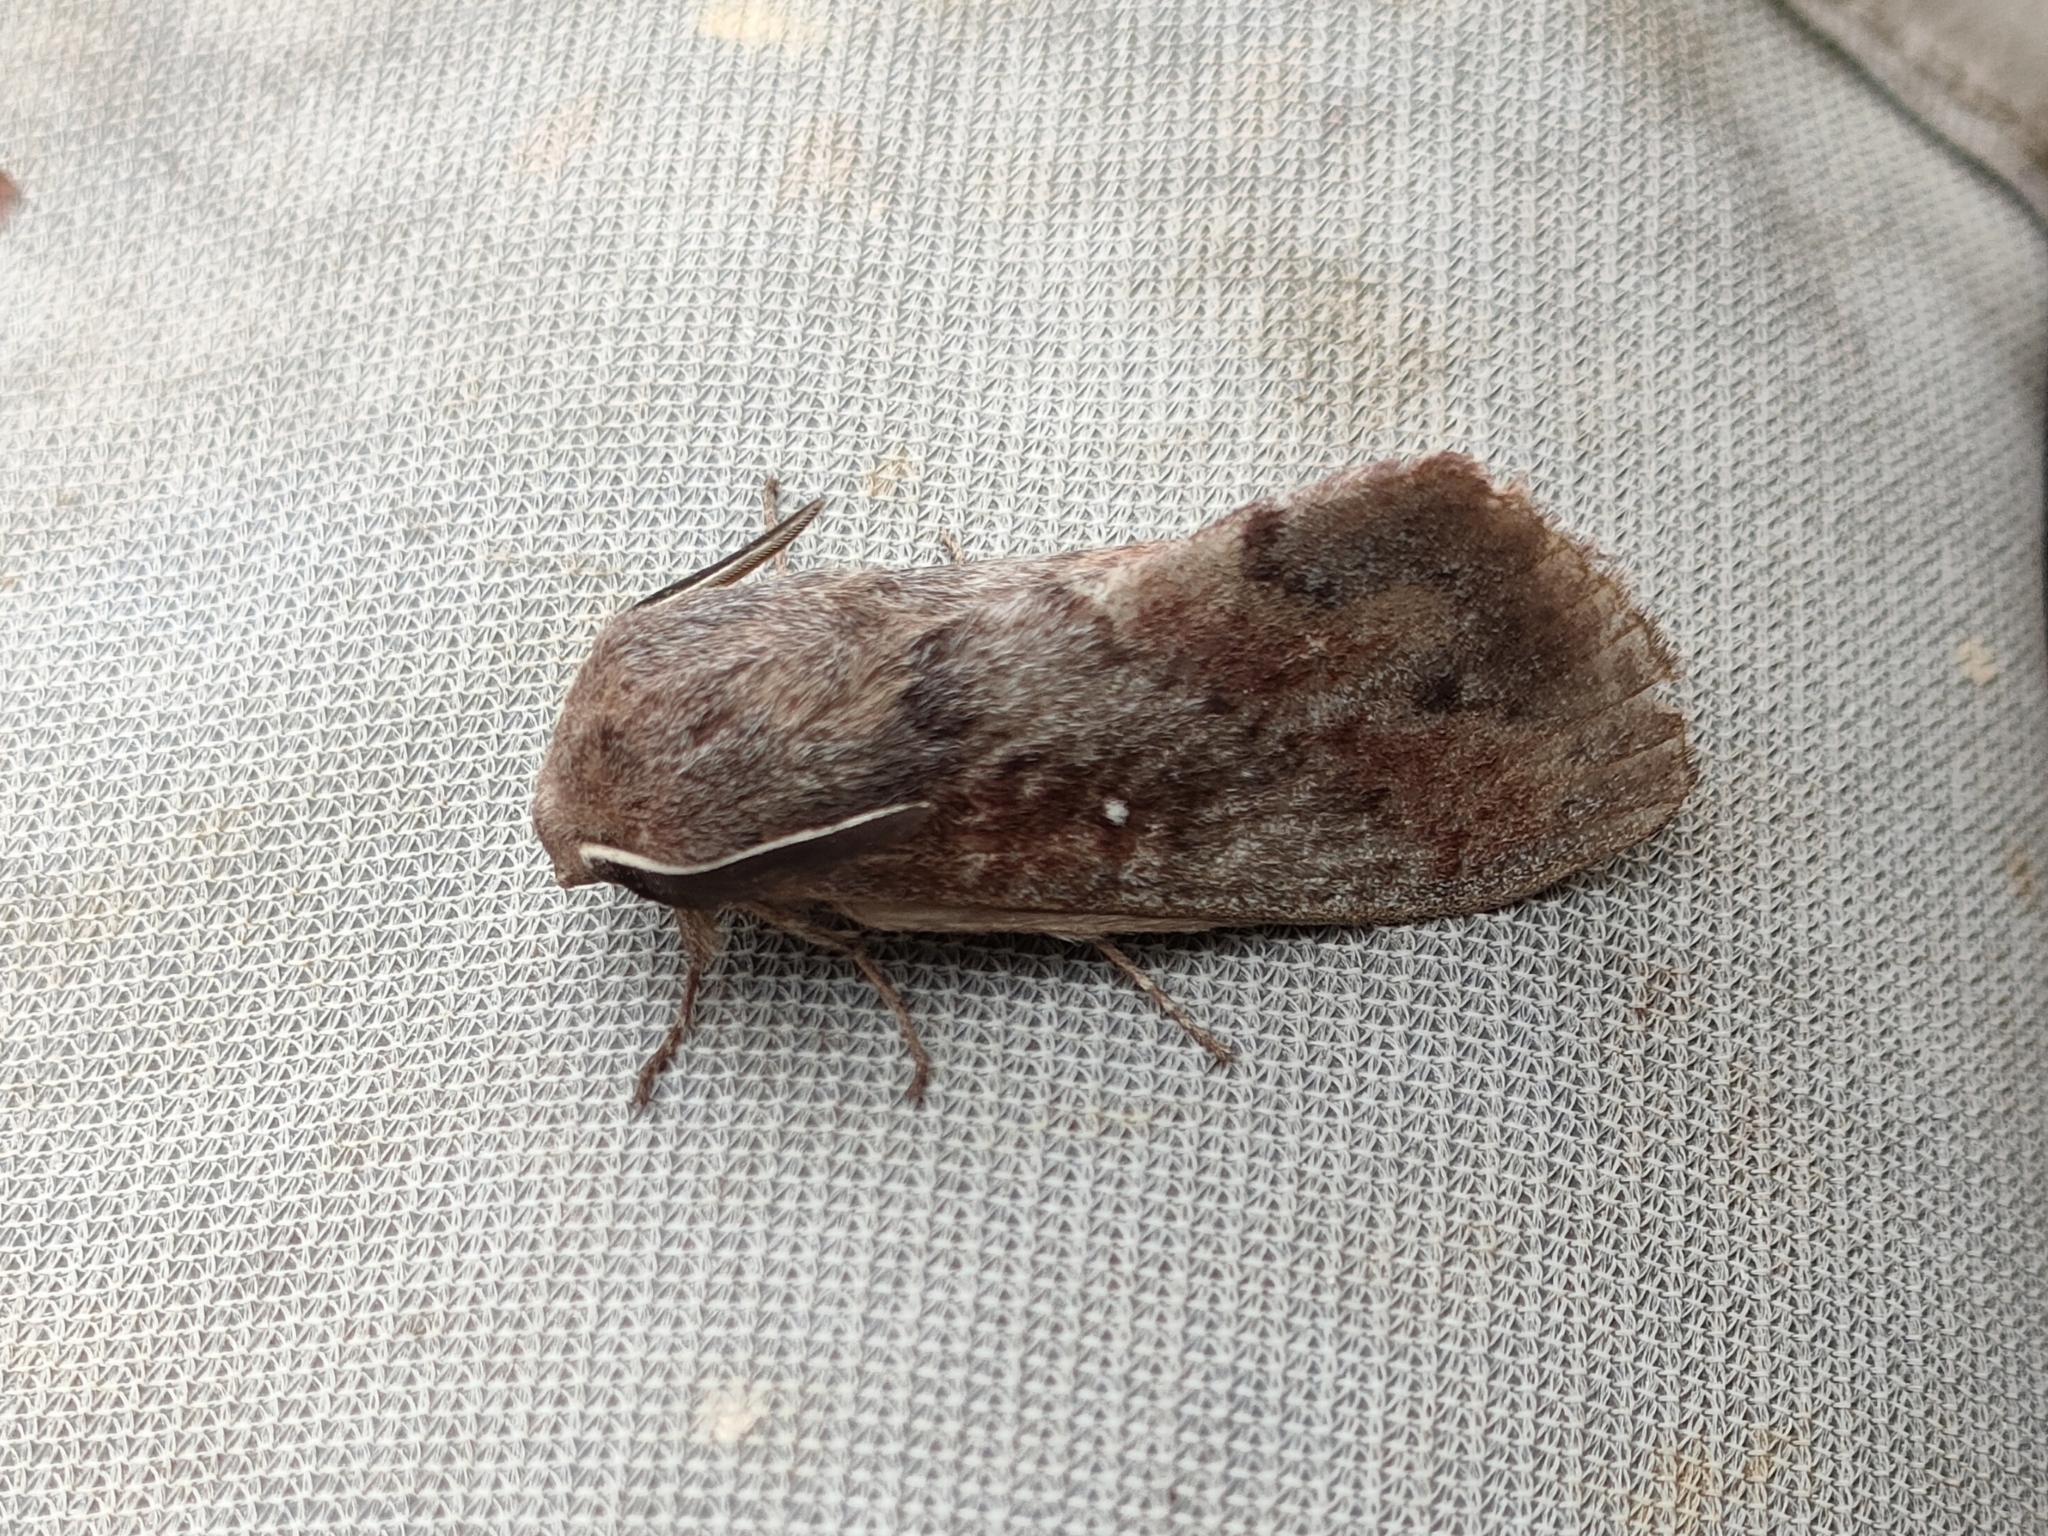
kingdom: Animalia
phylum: Arthropoda
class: Insecta
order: Lepidoptera
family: Lasiocampidae
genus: Dendrolimus
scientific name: Dendrolimus pini
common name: Pine-tree lappet
